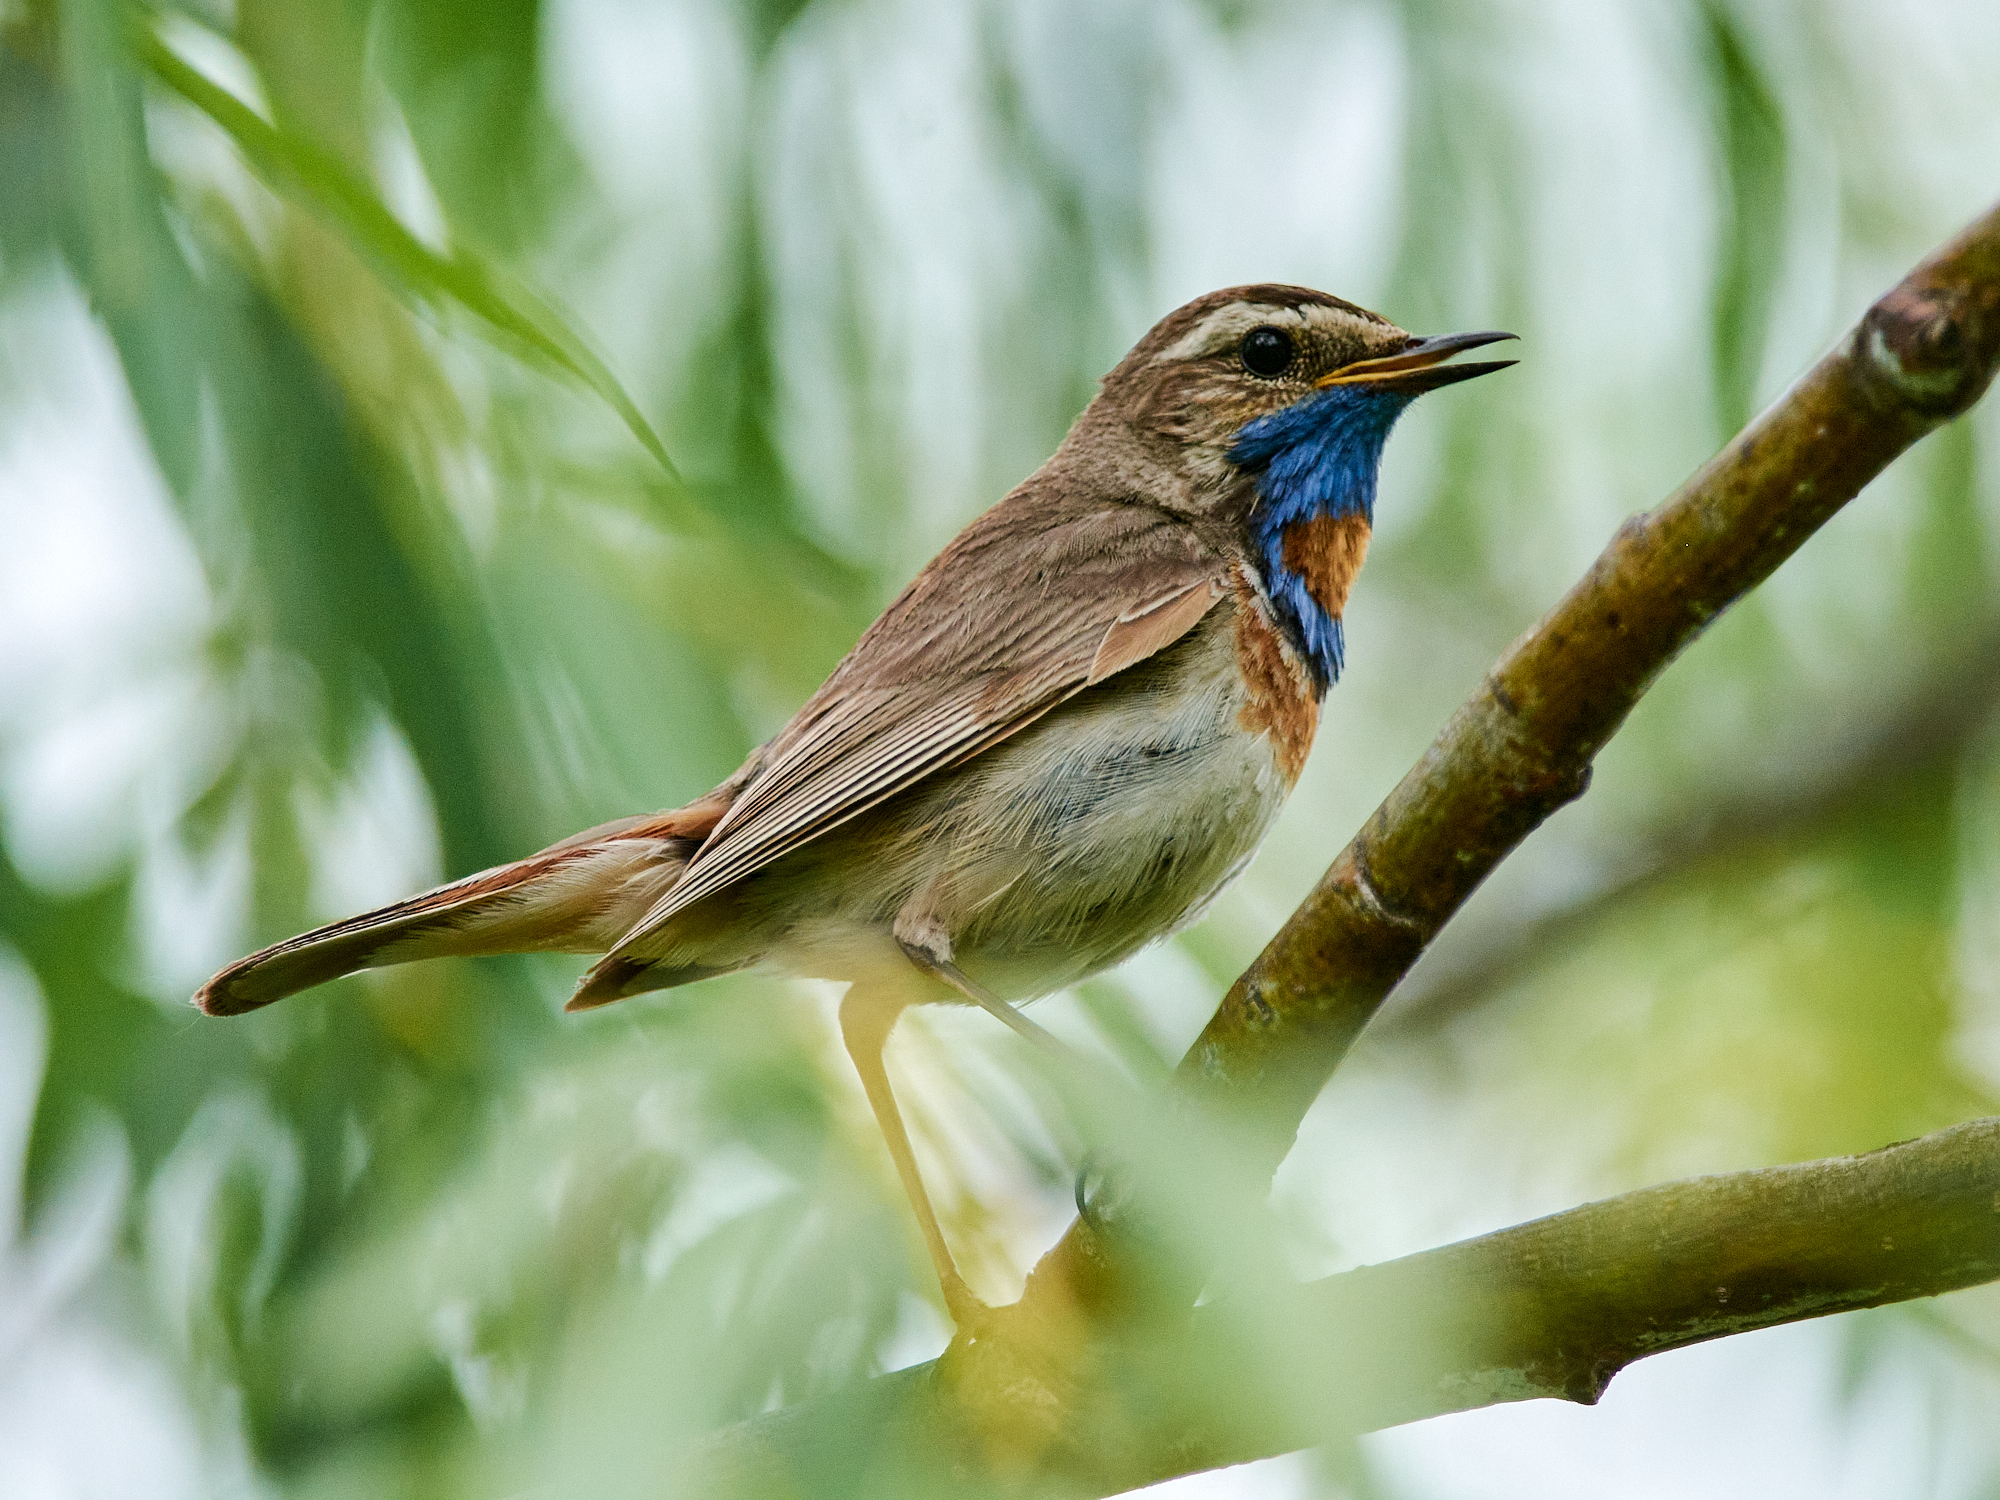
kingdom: Animalia
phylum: Chordata
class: Aves
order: Passeriformes
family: Muscicapidae
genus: Luscinia
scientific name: Luscinia svecica
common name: Bluethroat
